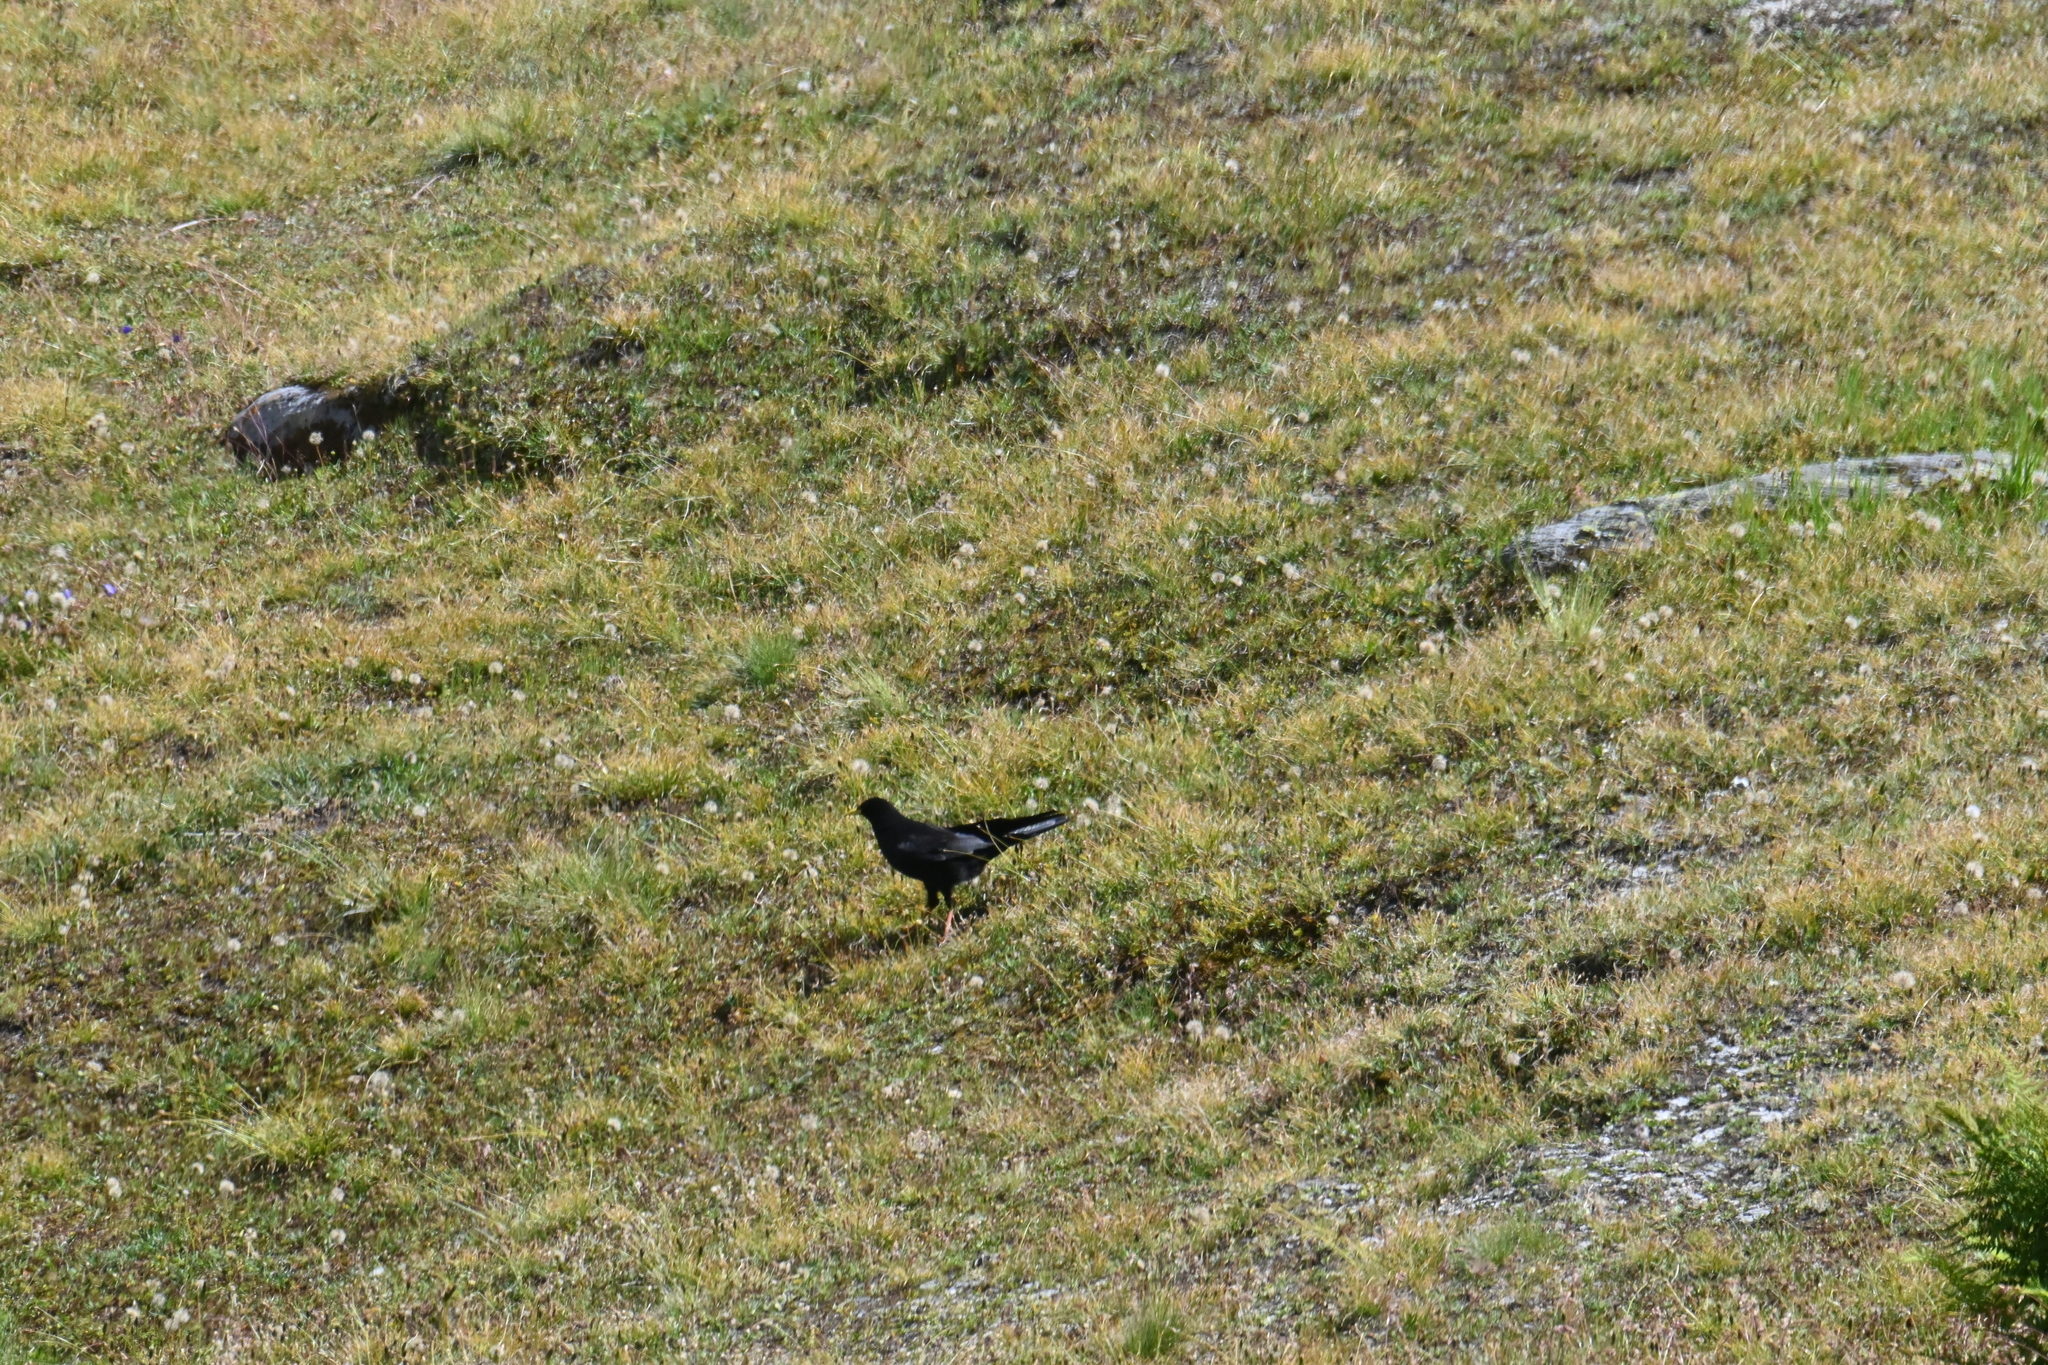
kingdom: Animalia
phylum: Chordata
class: Aves
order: Passeriformes
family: Corvidae
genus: Pyrrhocorax
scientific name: Pyrrhocorax graculus
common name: Alpine chough
